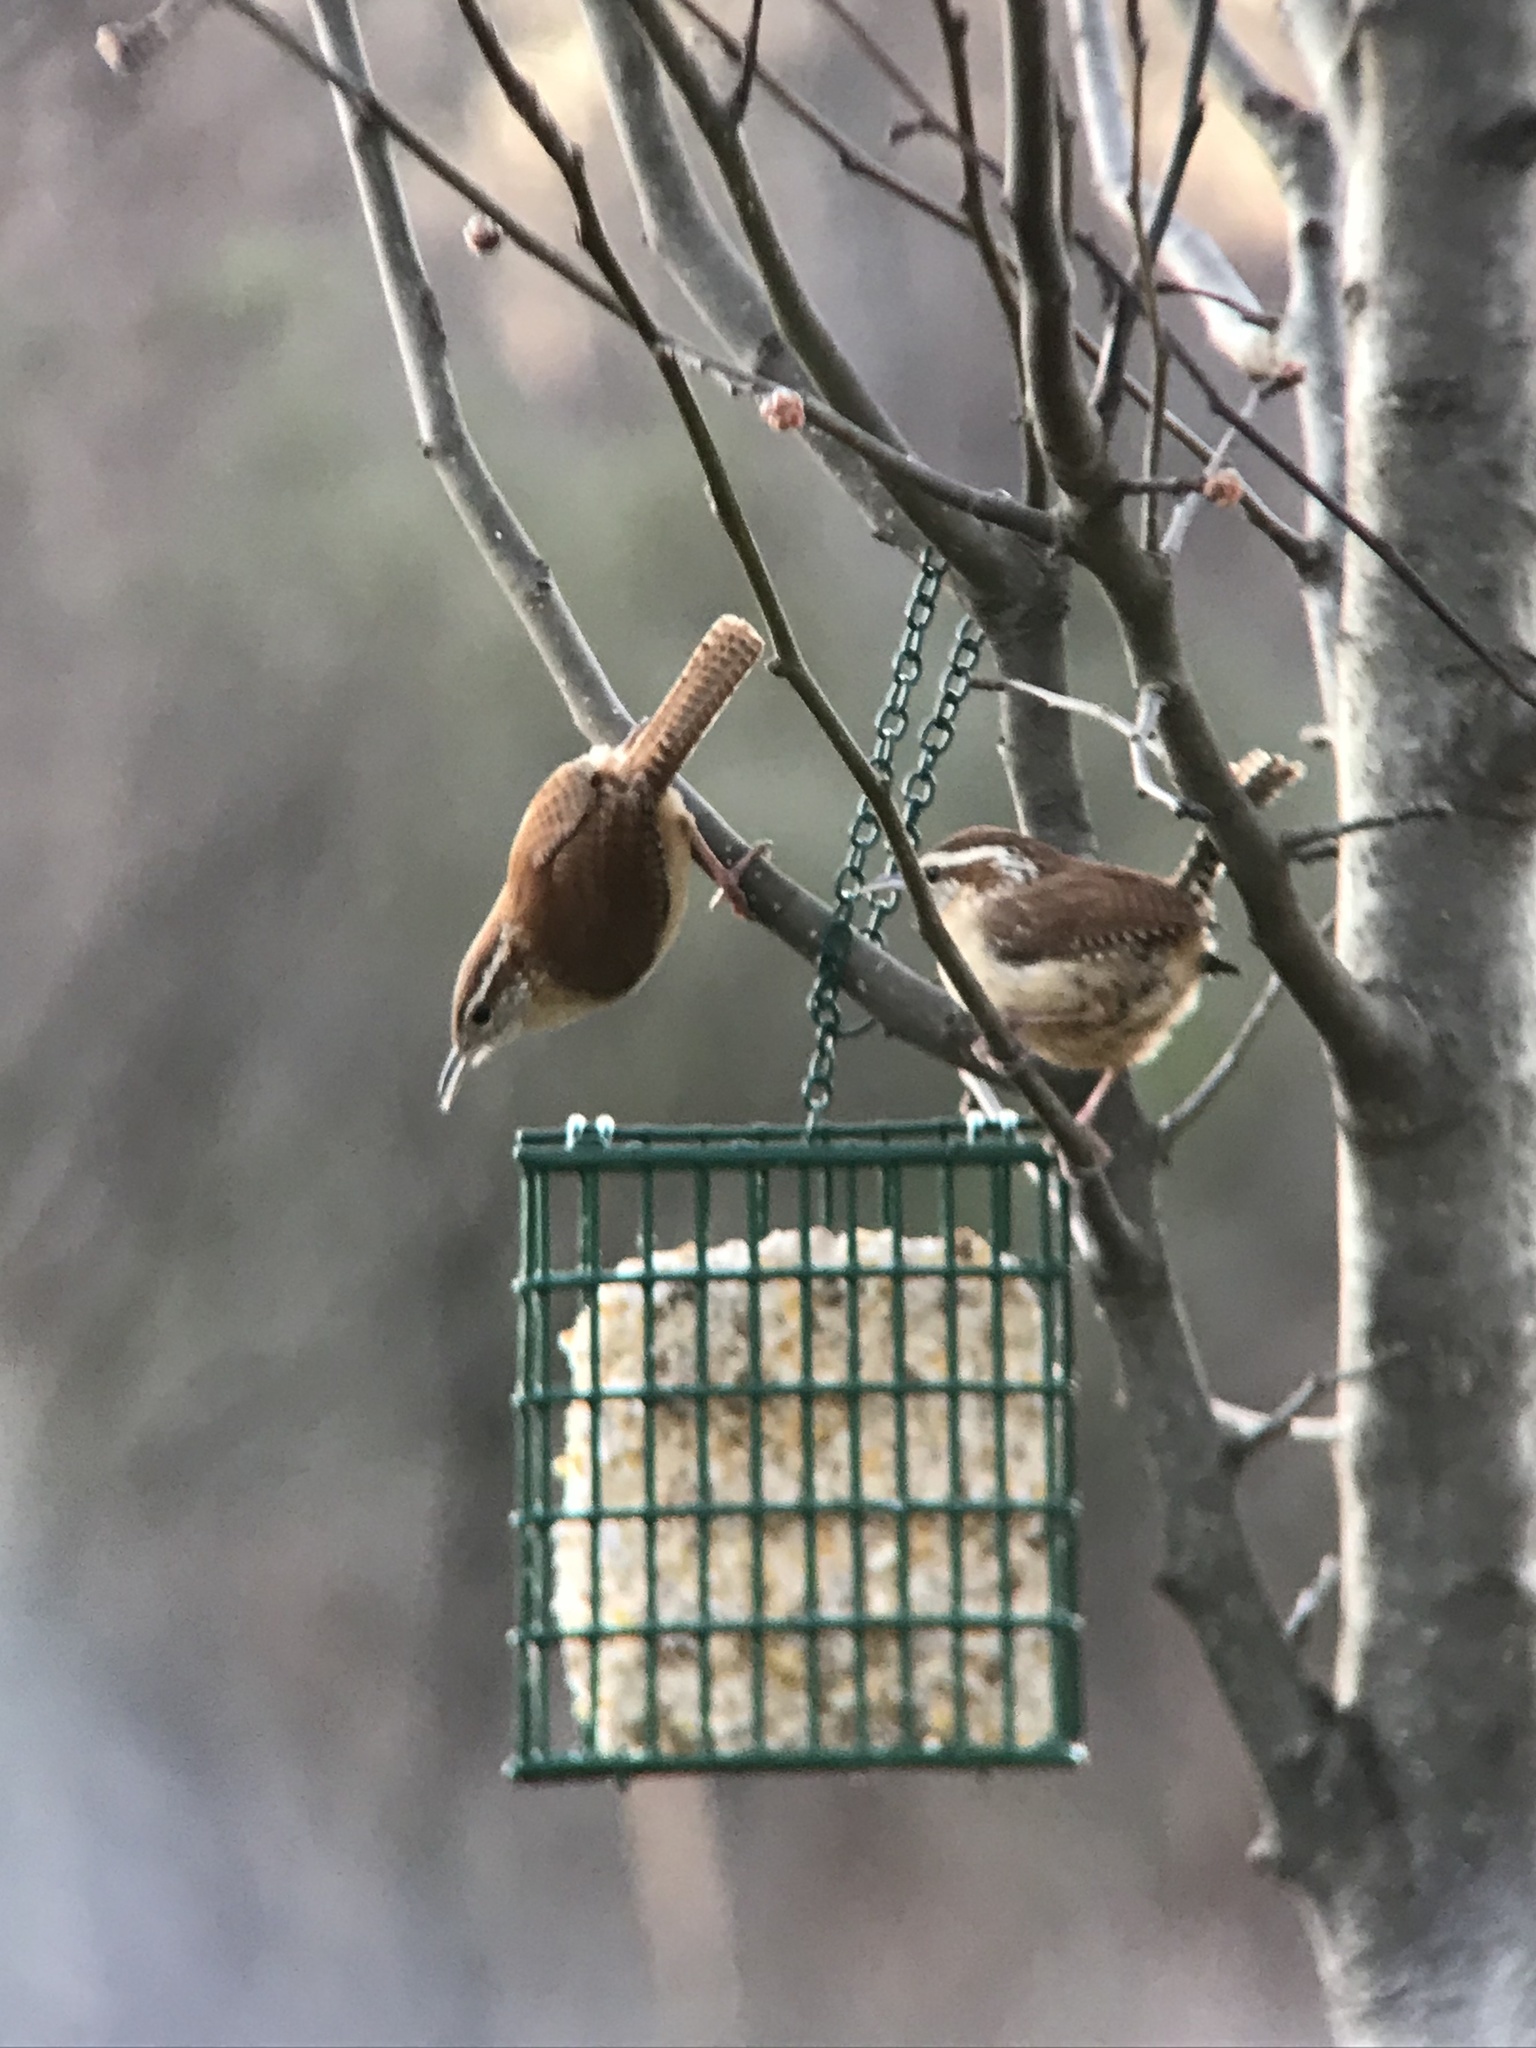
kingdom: Animalia
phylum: Chordata
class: Aves
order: Passeriformes
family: Troglodytidae
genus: Thryothorus
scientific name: Thryothorus ludovicianus
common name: Carolina wren
